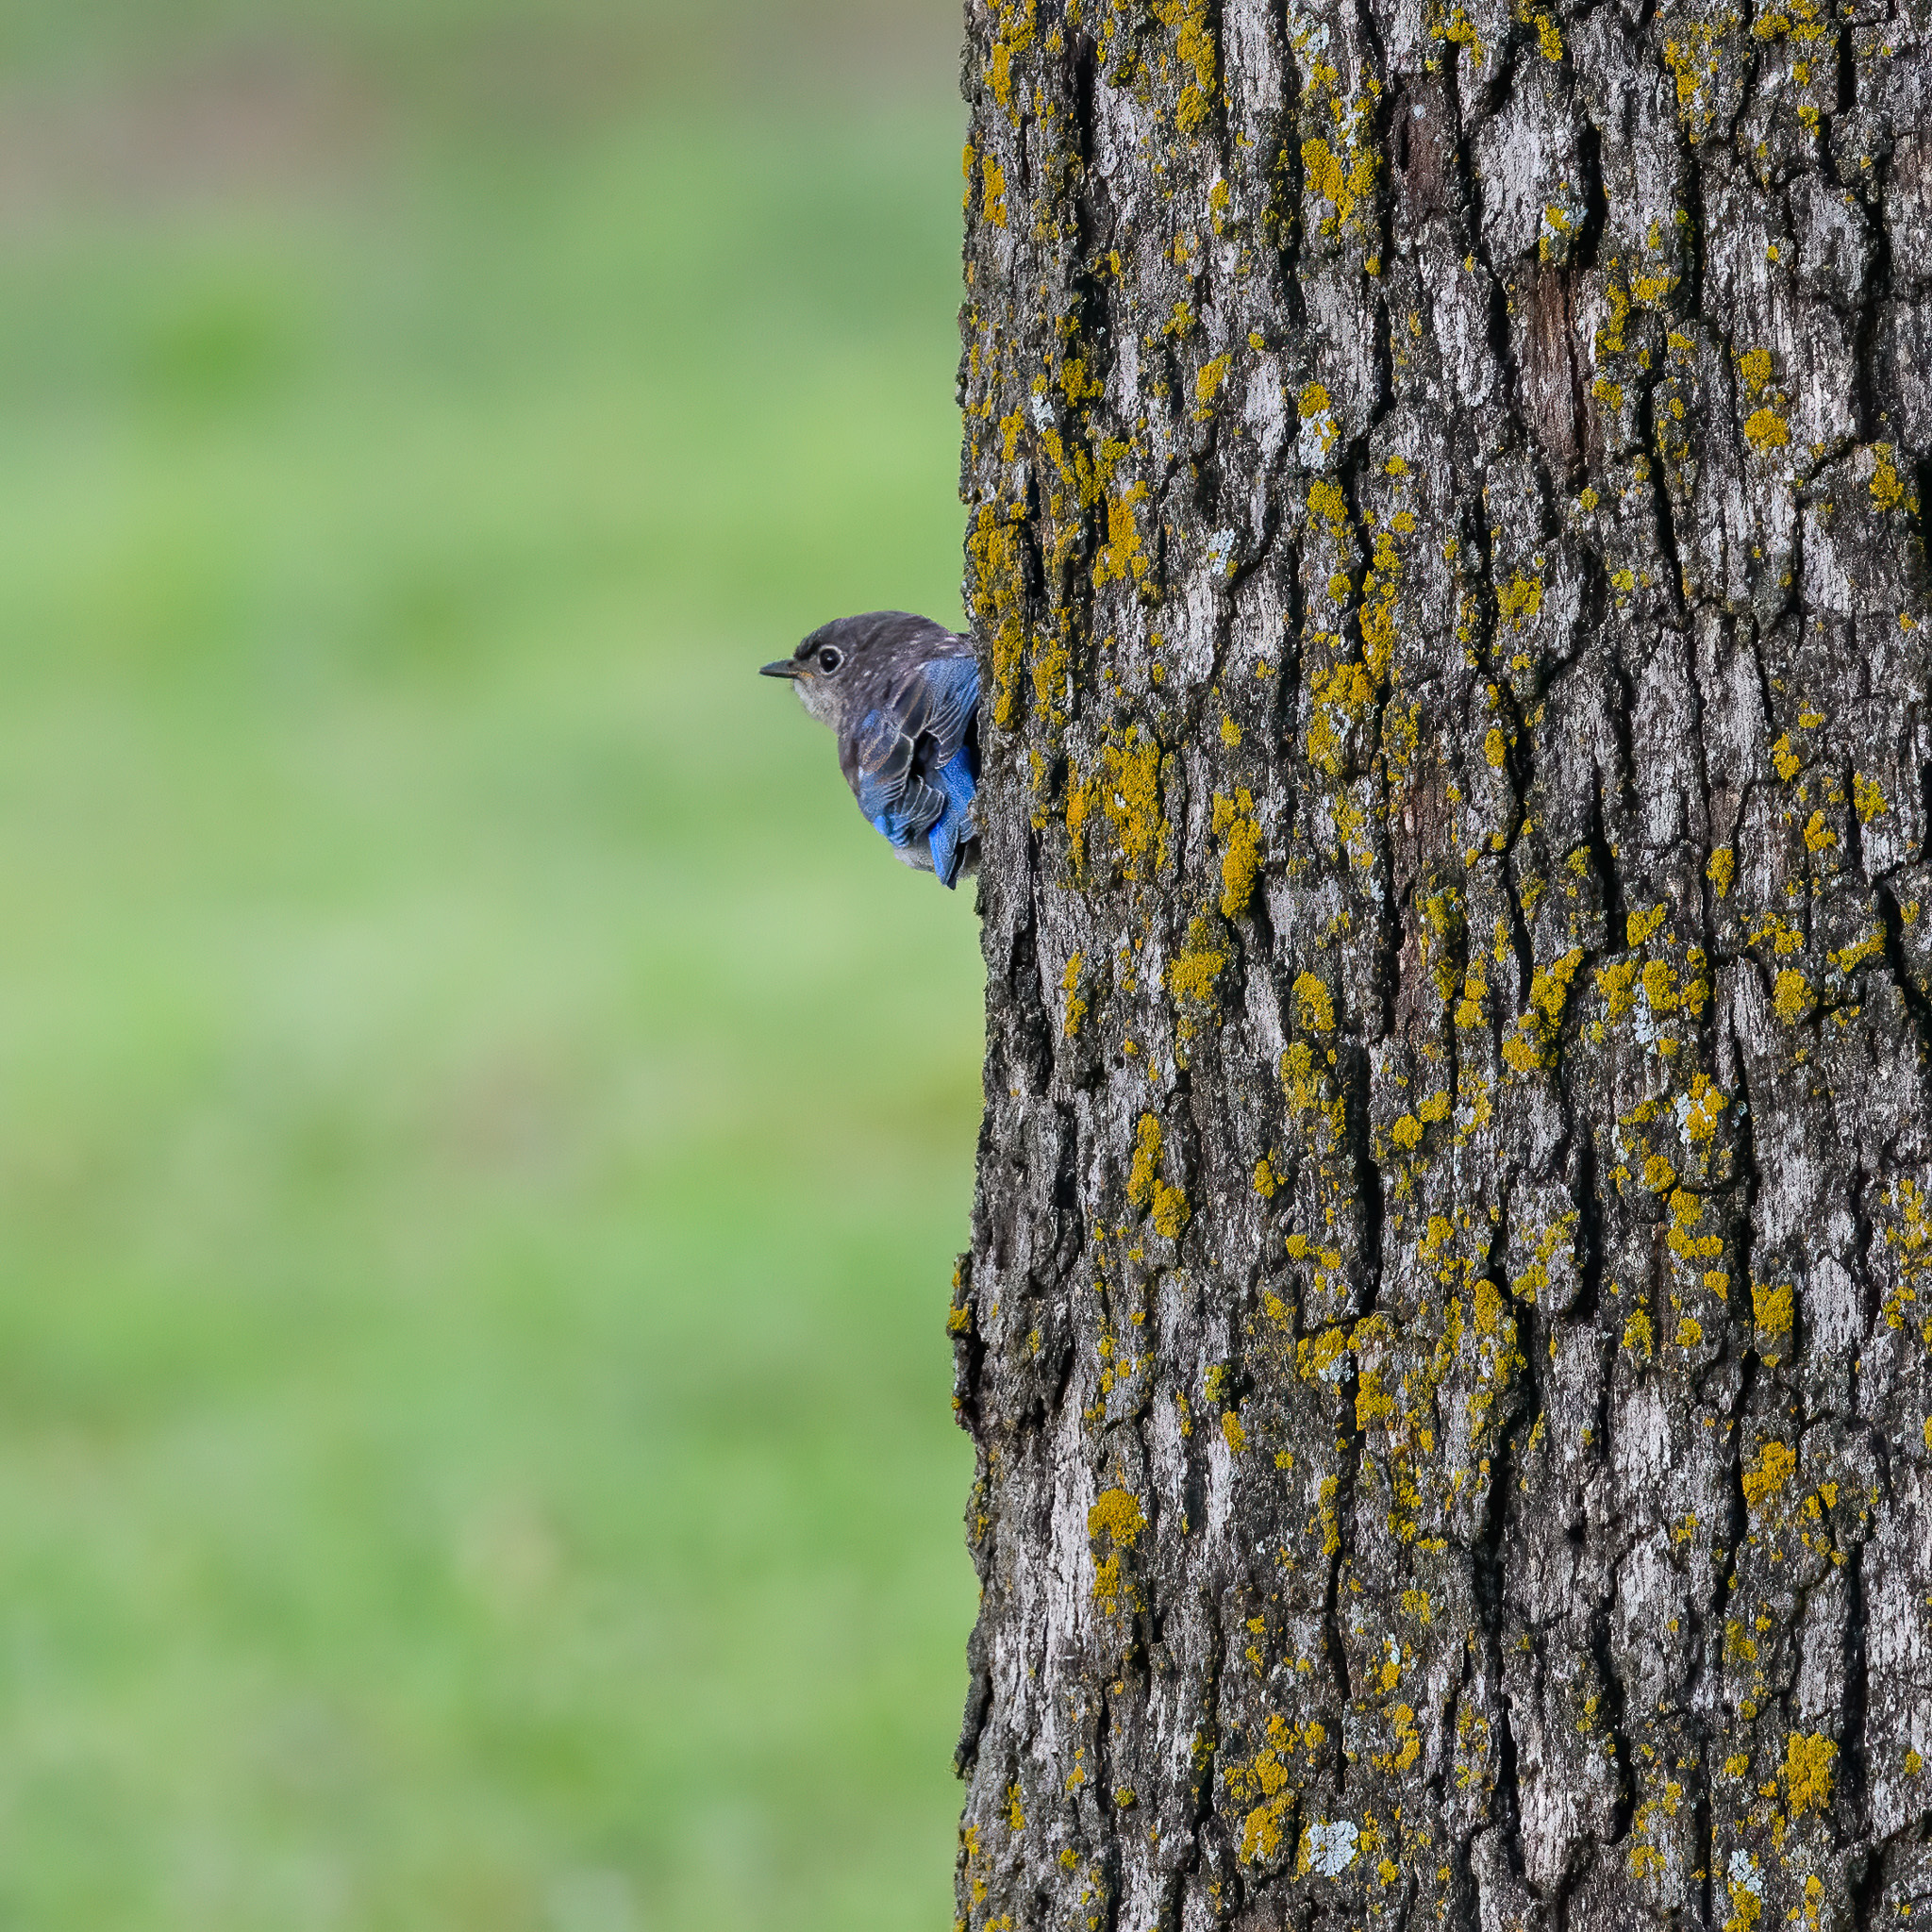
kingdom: Animalia
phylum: Chordata
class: Aves
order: Passeriformes
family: Turdidae
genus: Sialia
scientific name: Sialia sialis
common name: Eastern bluebird
